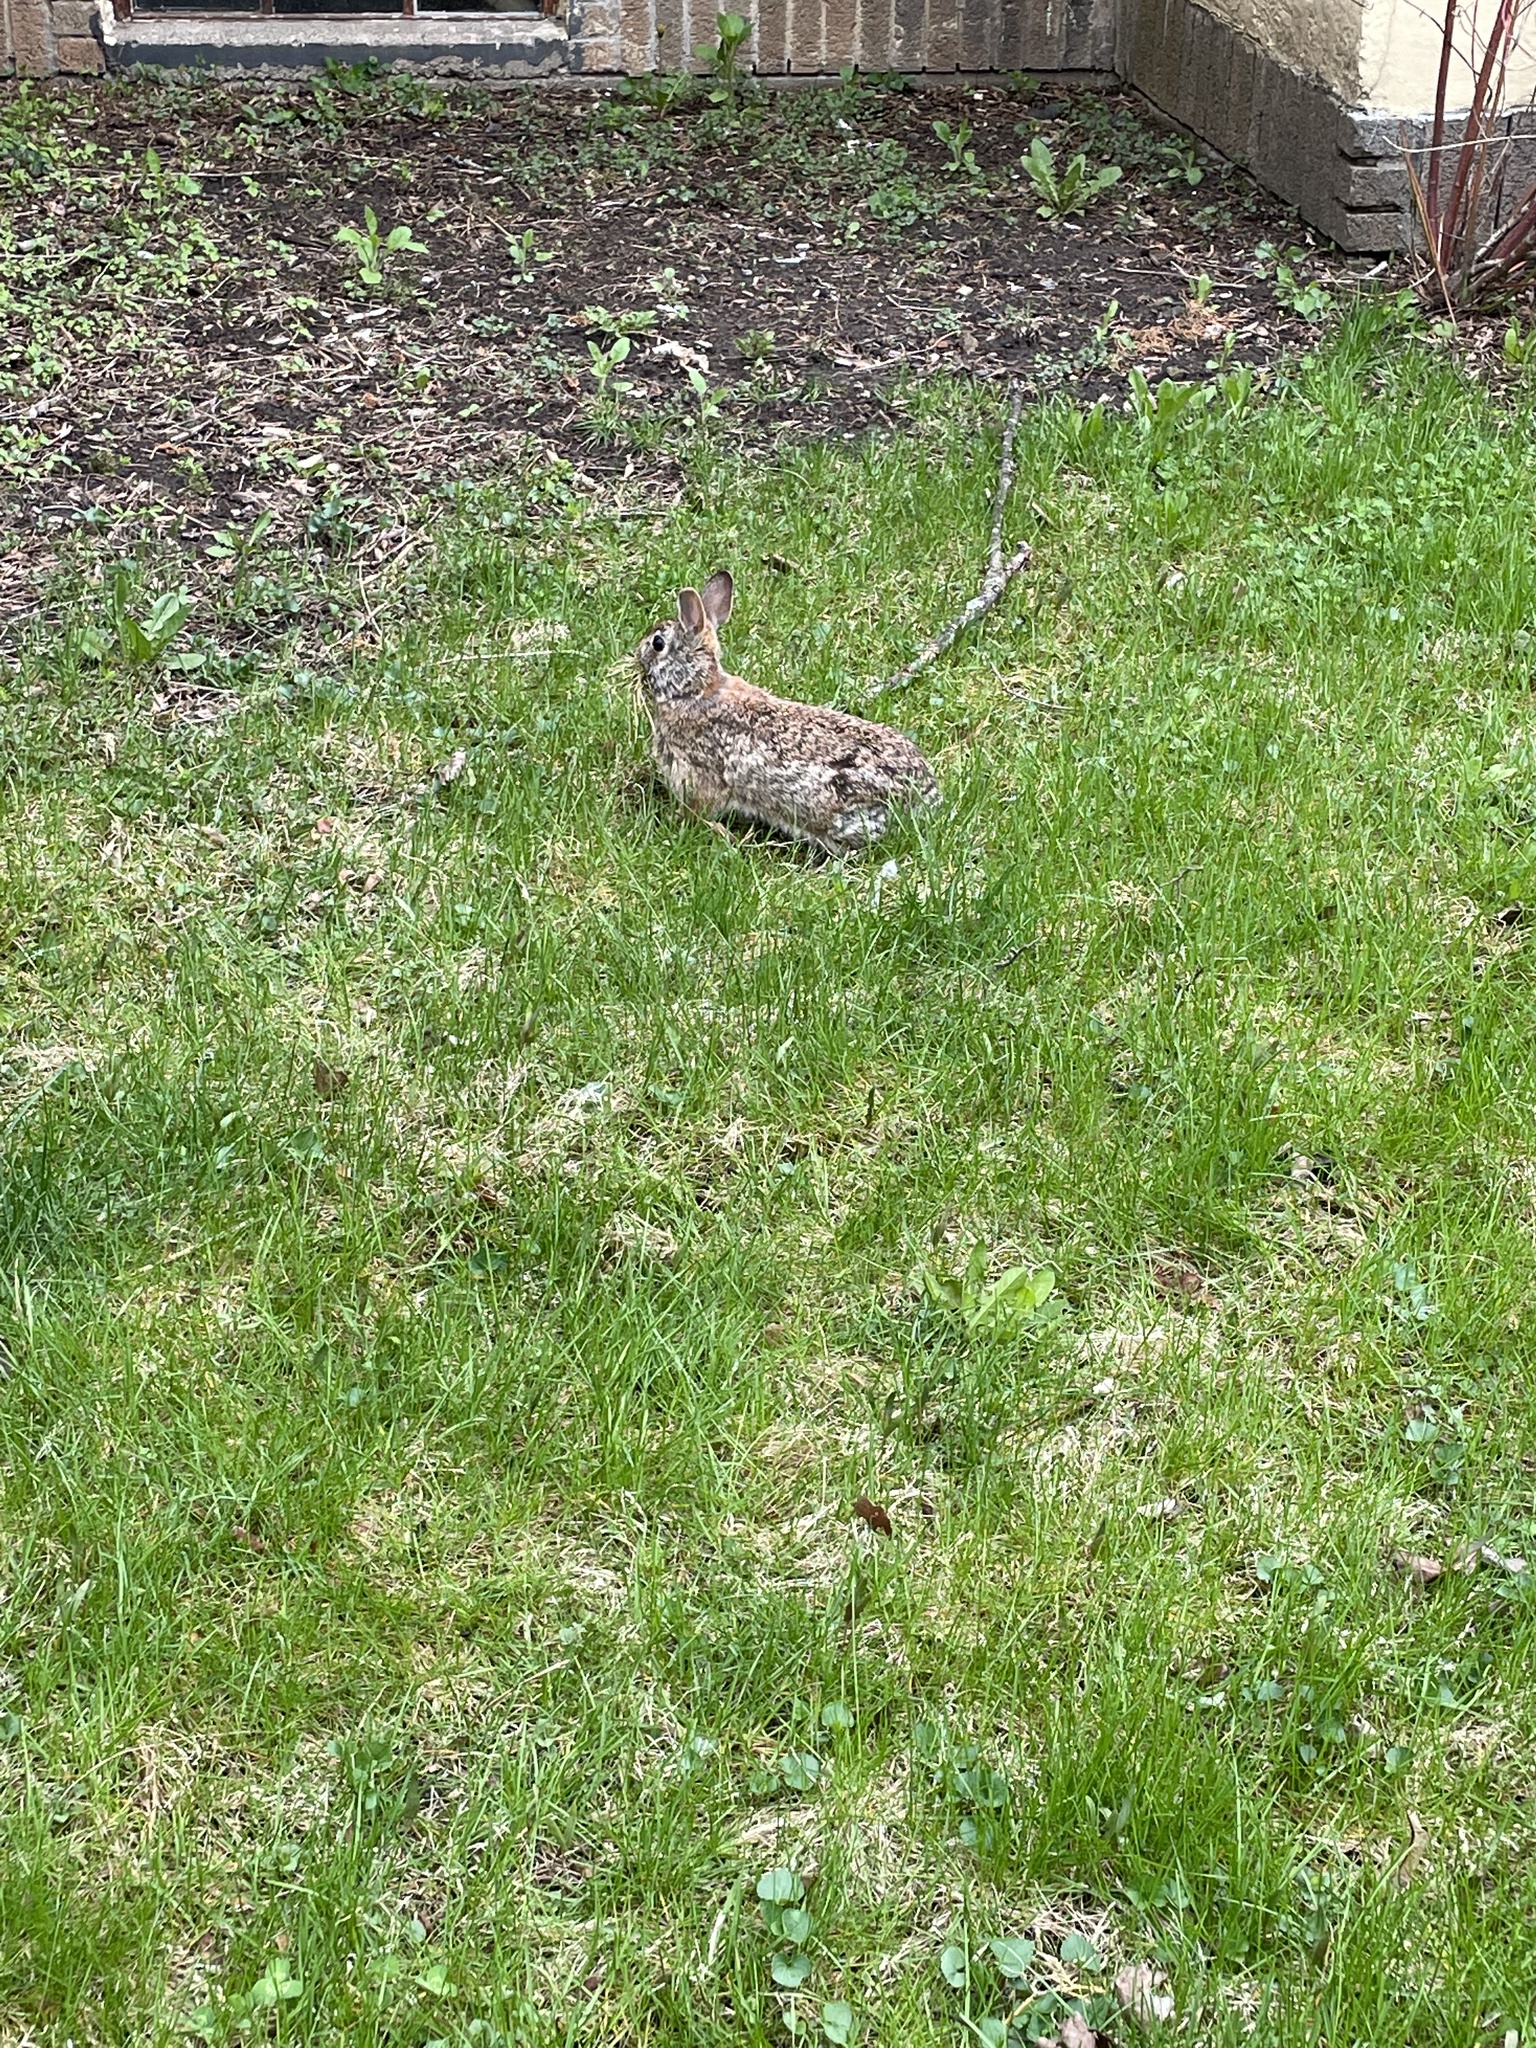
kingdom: Animalia
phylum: Chordata
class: Mammalia
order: Lagomorpha
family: Leporidae
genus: Sylvilagus
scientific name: Sylvilagus floridanus
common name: Eastern cottontail
